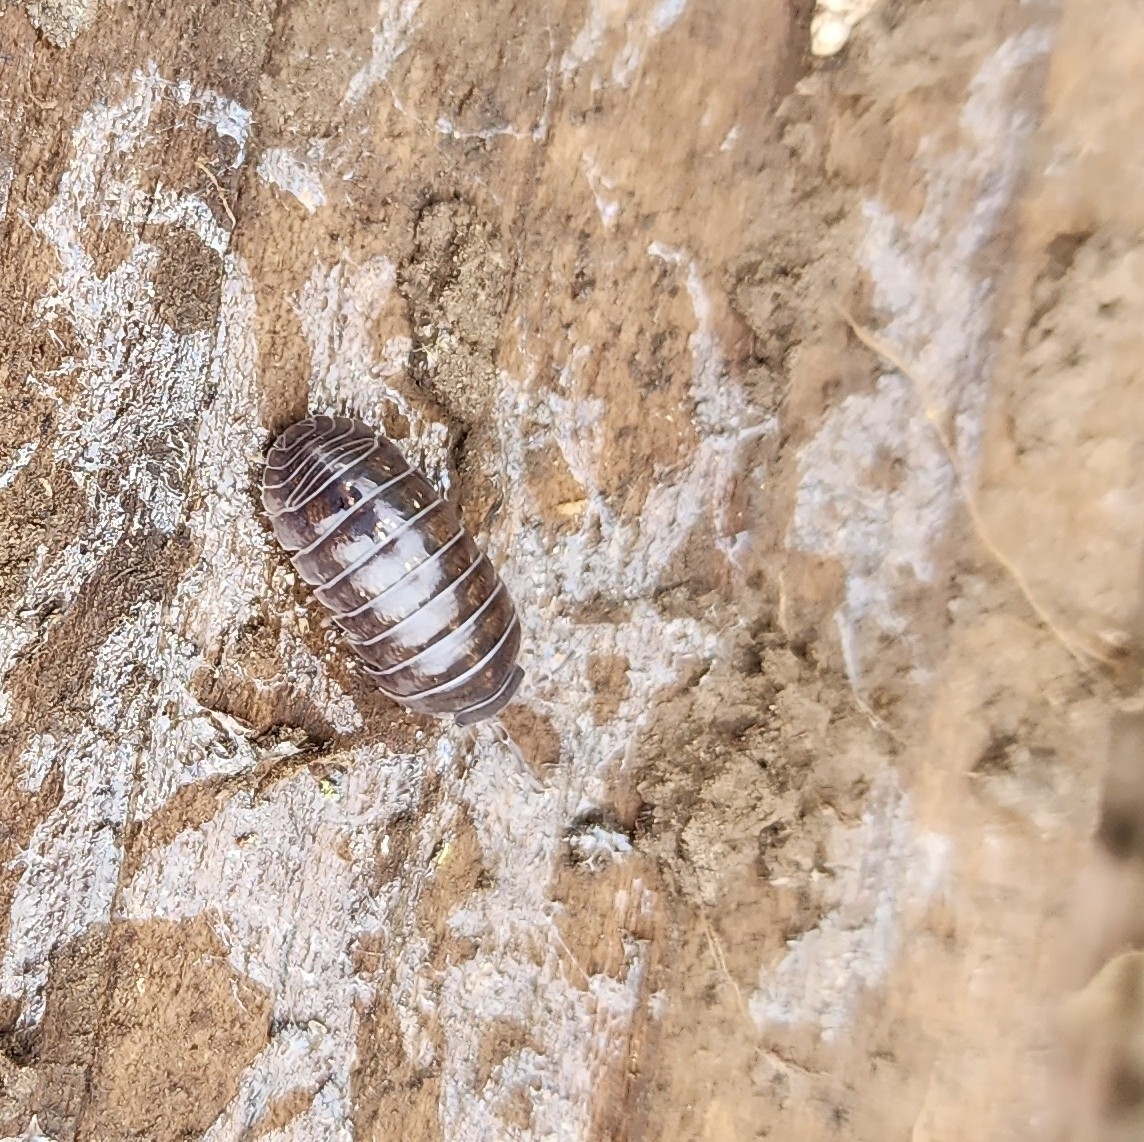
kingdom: Animalia
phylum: Arthropoda
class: Malacostraca
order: Isopoda
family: Armadillidiidae
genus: Armadillidium
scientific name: Armadillidium vulgare
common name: Common pill woodlouse
